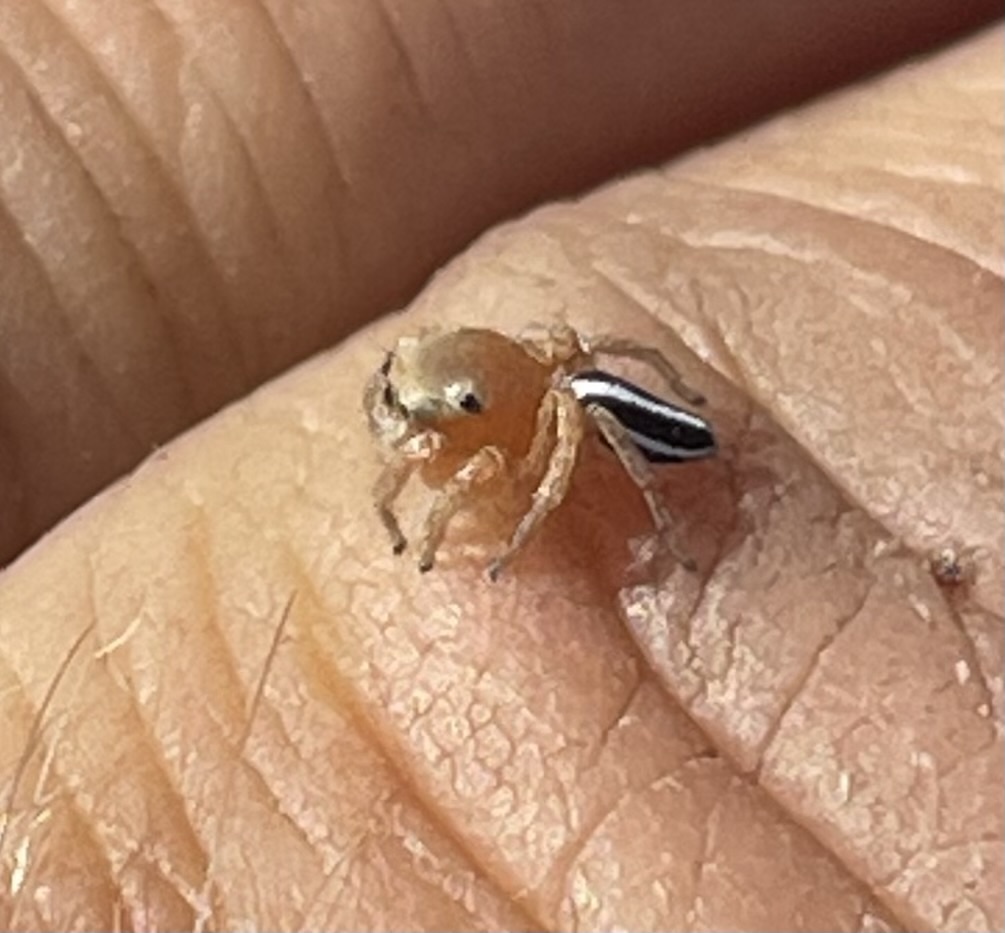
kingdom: Animalia
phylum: Arthropoda
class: Arachnida
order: Araneae
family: Salticidae
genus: Evarcha
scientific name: Evarcha striolata
